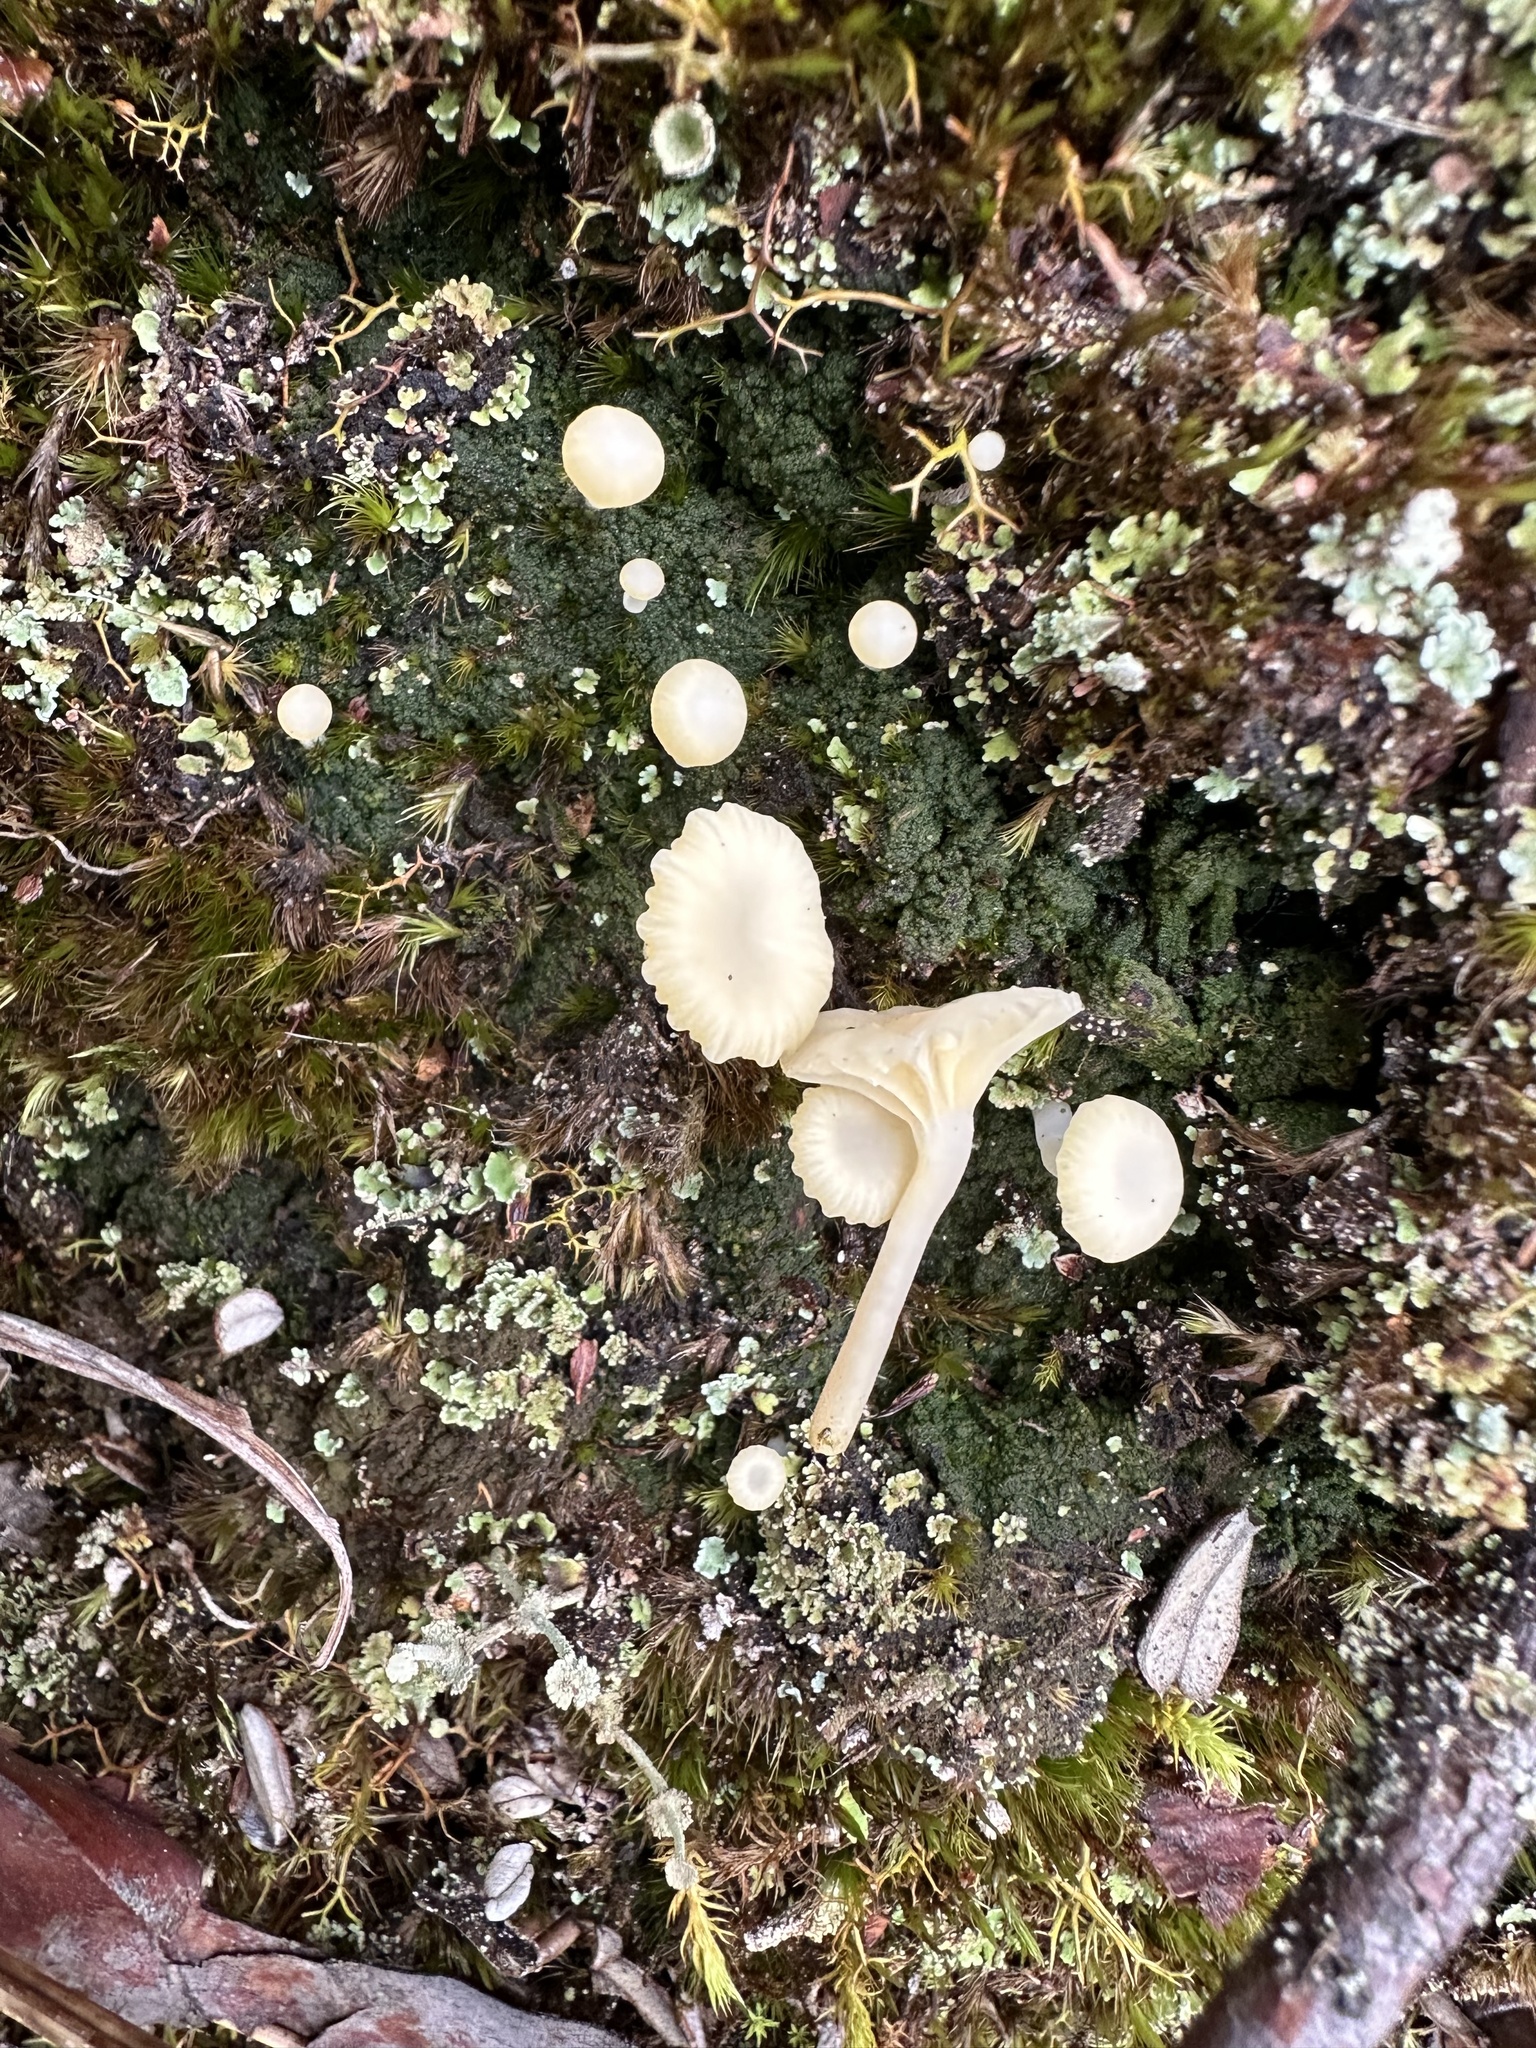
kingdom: Fungi
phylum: Basidiomycota
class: Agaricomycetes
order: Agaricales
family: Hygrophoraceae
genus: Lichenomphalia
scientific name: Lichenomphalia
